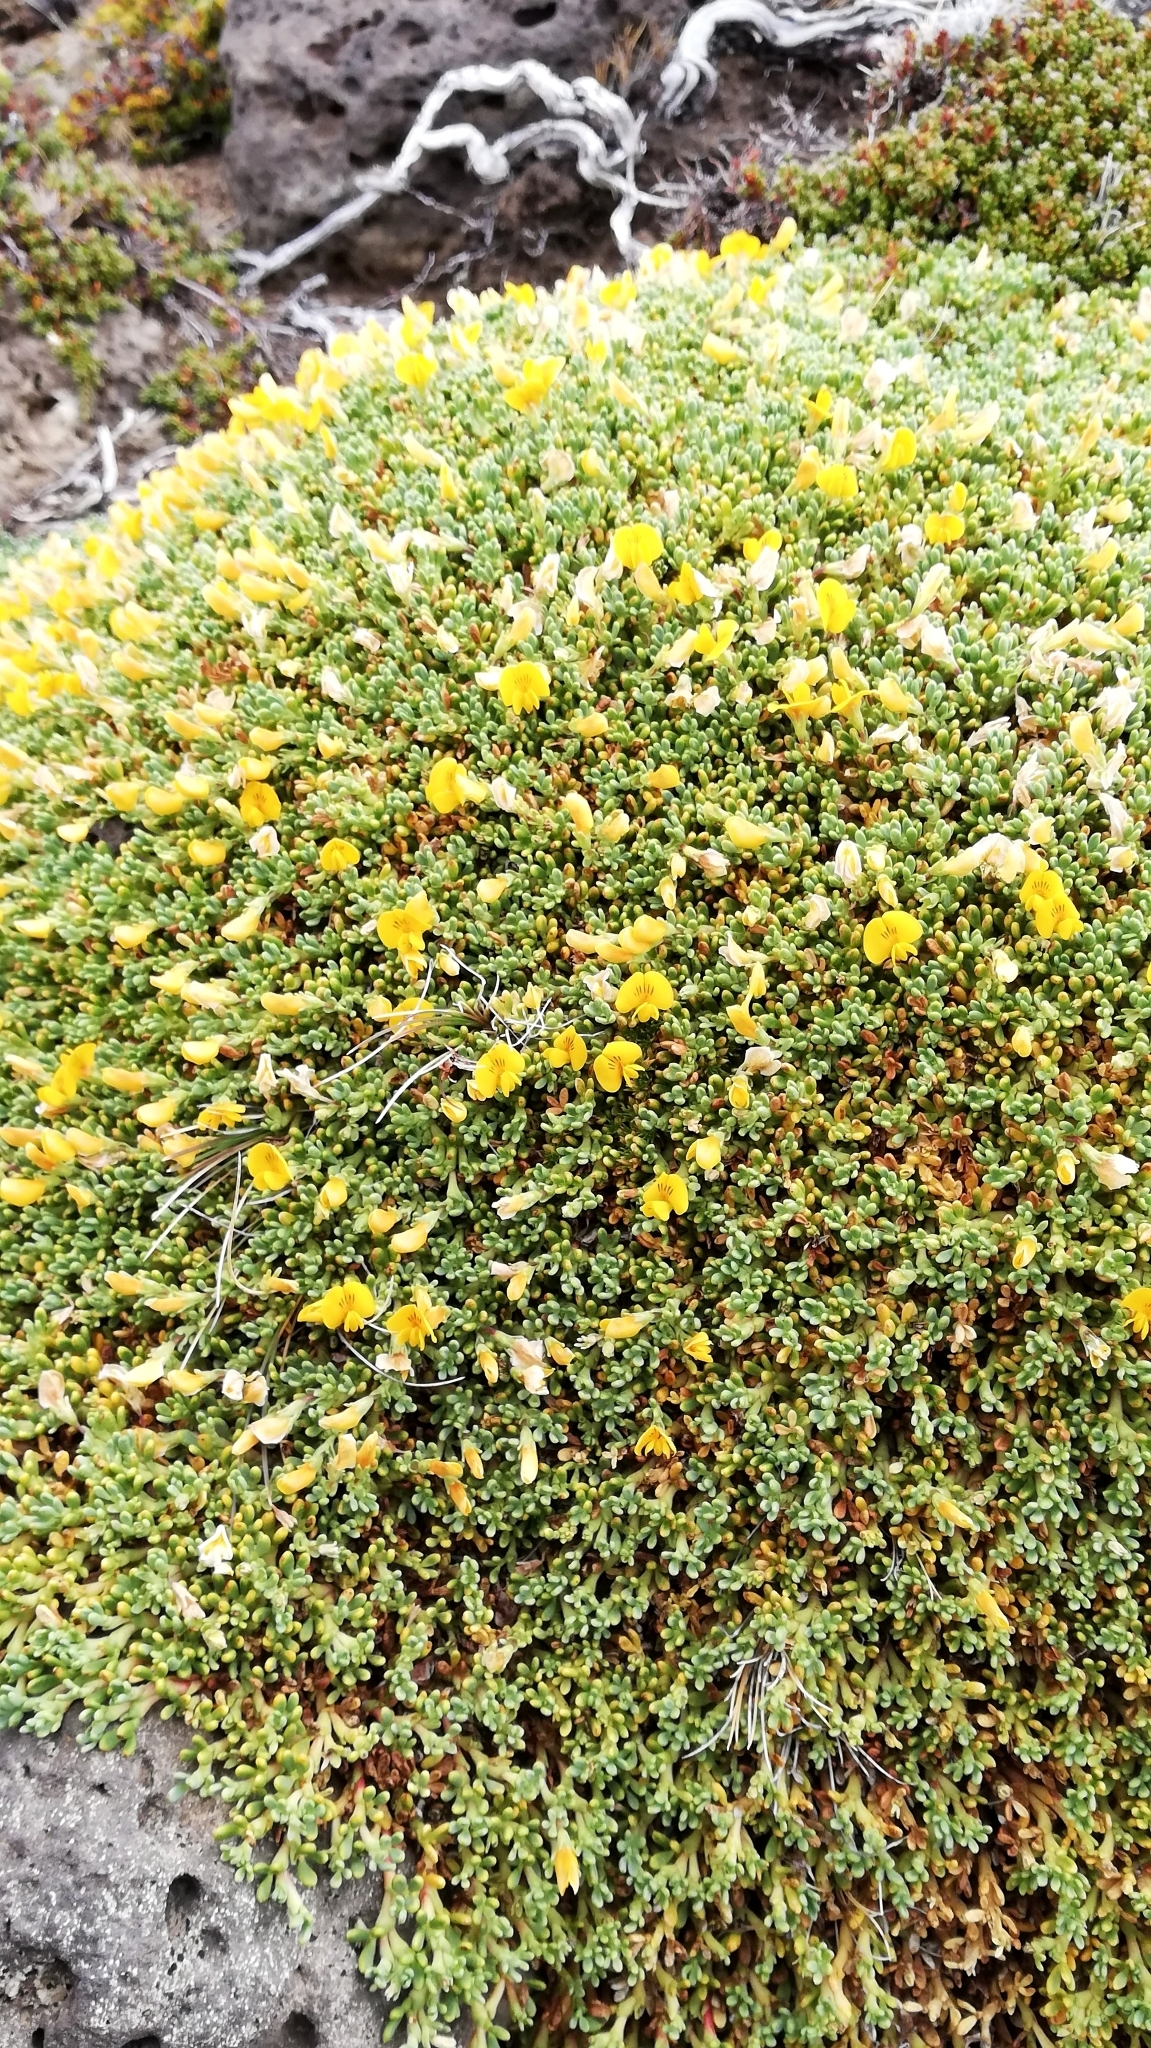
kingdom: Plantae
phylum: Tracheophyta
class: Magnoliopsida
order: Fabales
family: Fabaceae
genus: Adesmia
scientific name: Adesmia salicornioides
